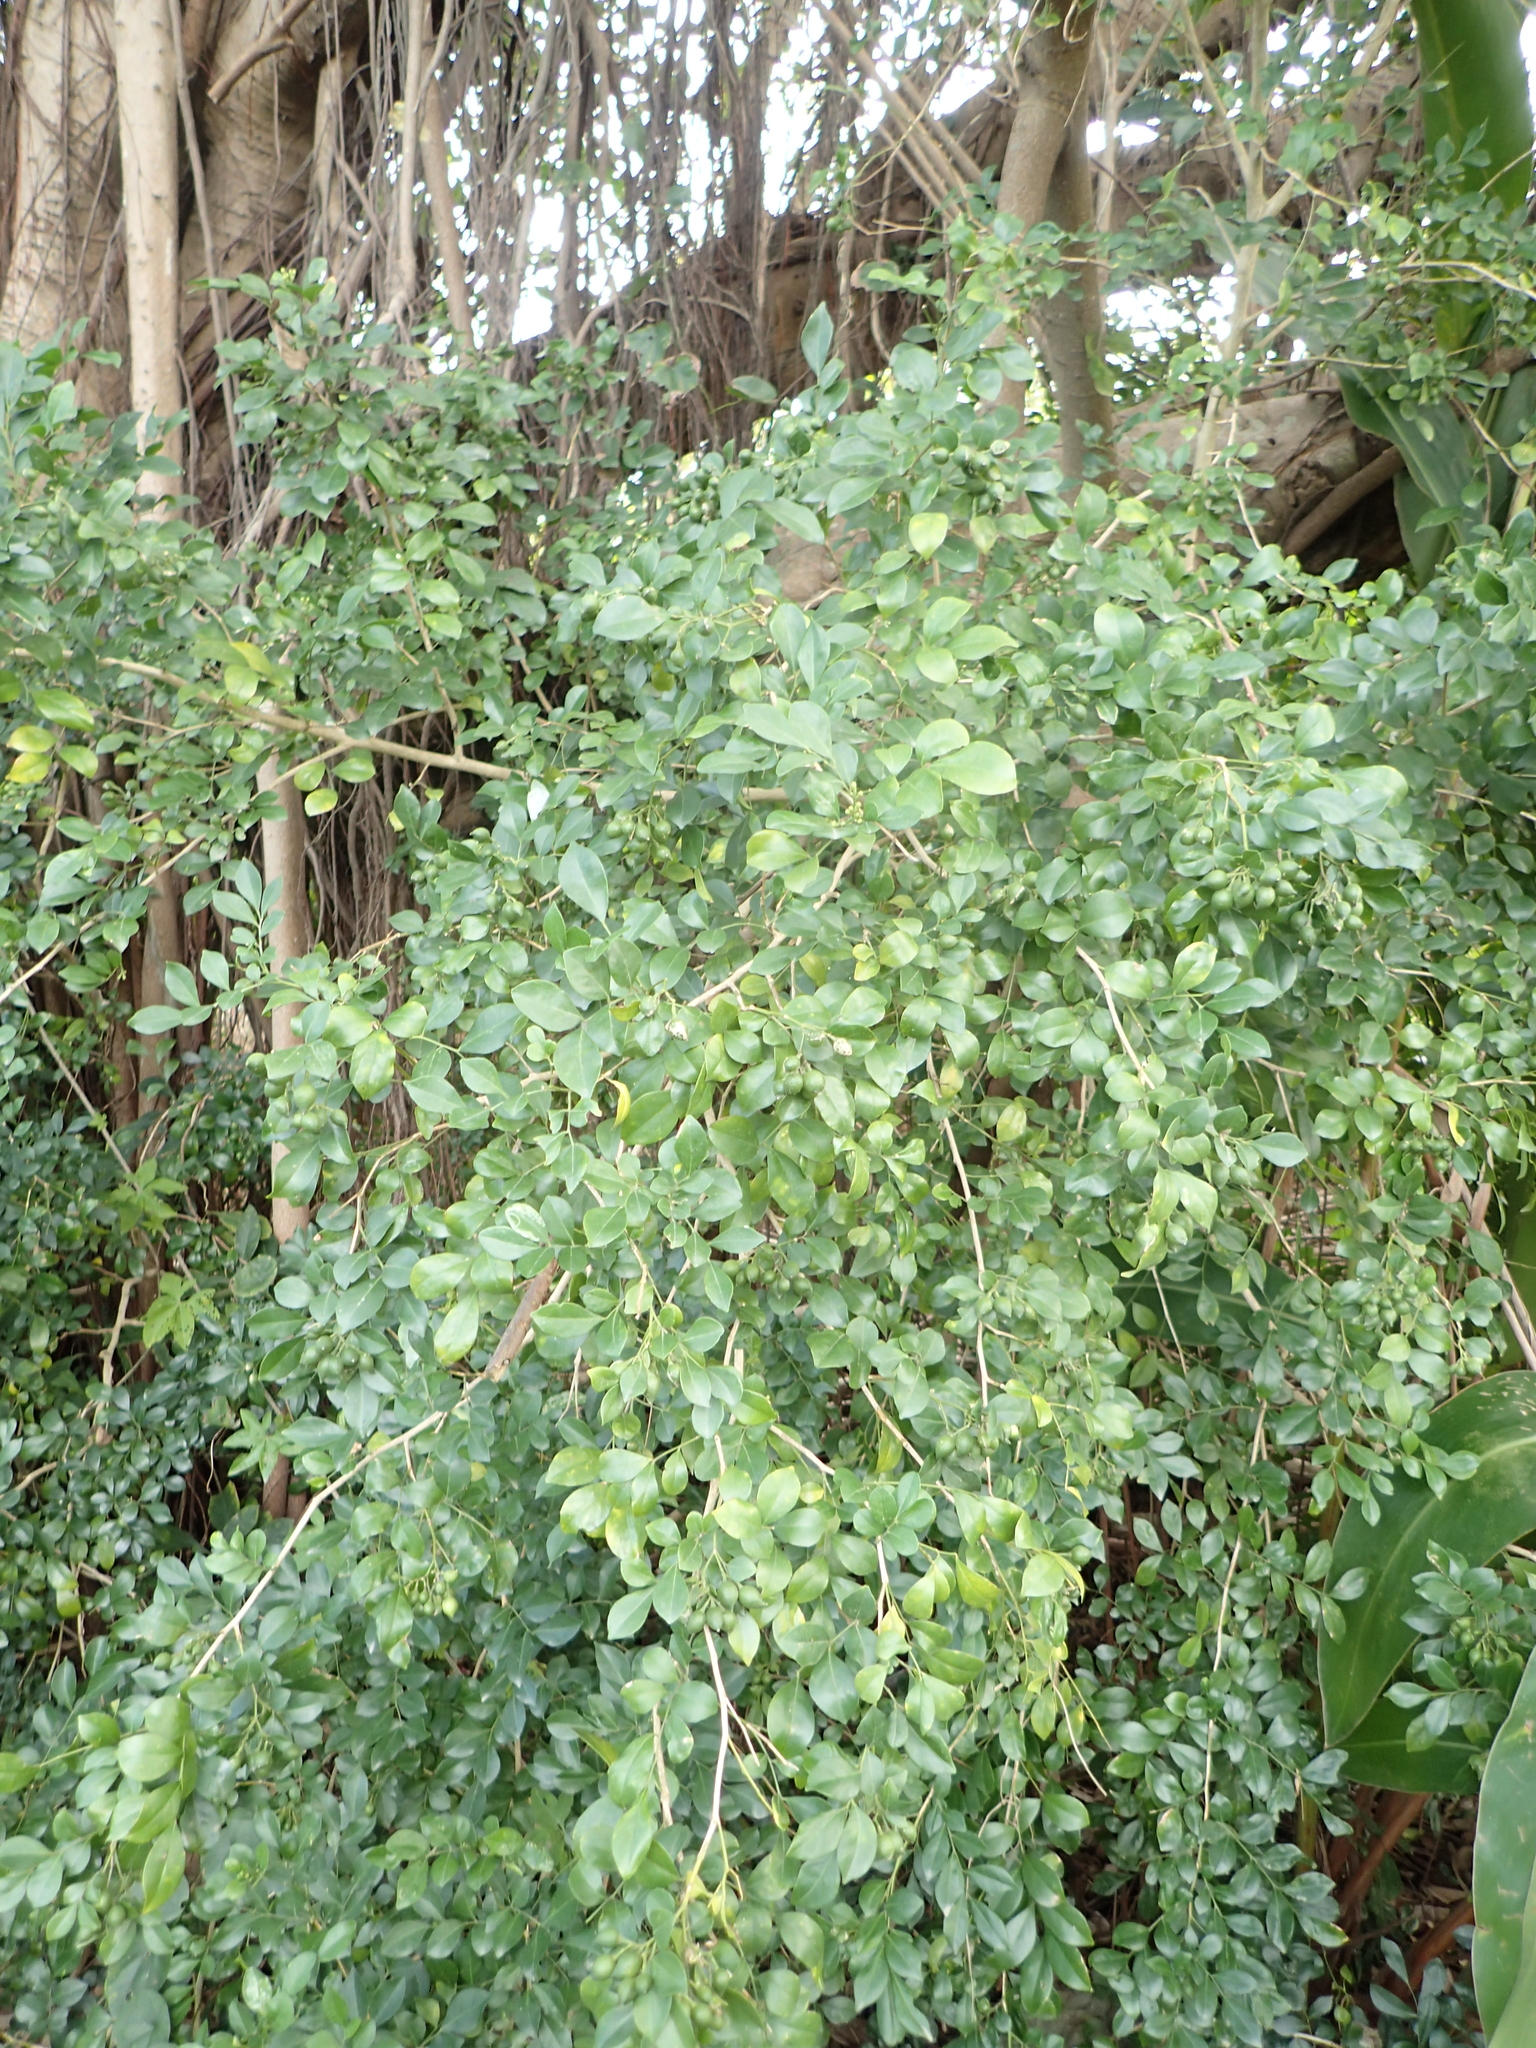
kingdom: Plantae
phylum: Tracheophyta
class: Magnoliopsida
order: Sapindales
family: Rutaceae
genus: Murraya
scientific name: Murraya paniculata
